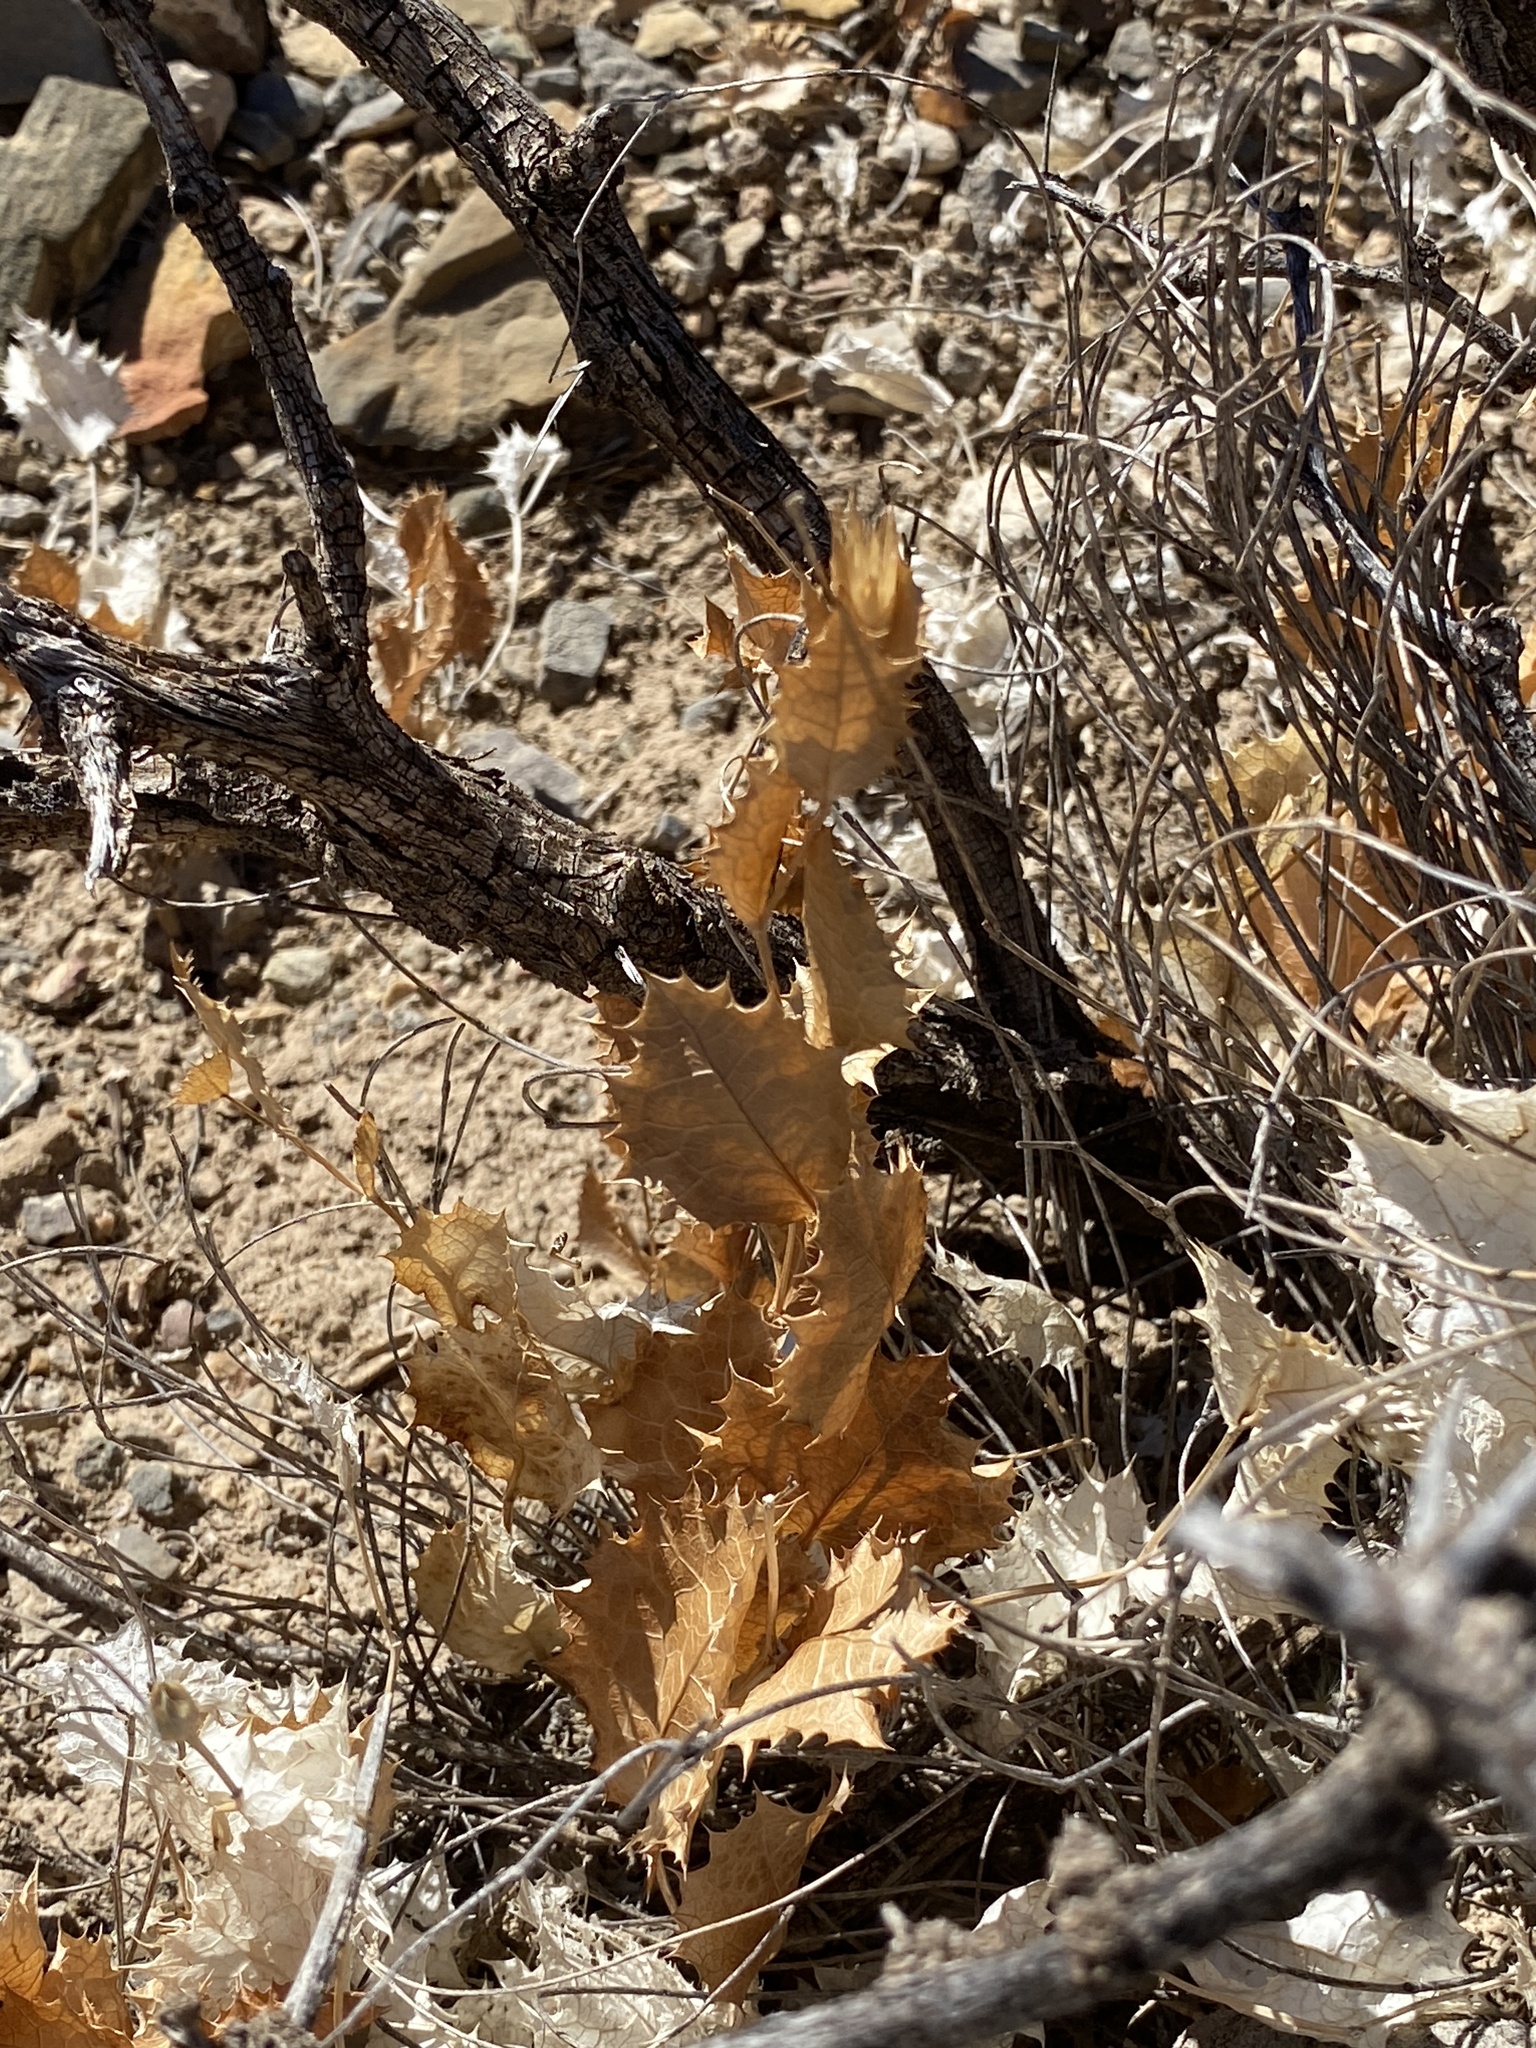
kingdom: Plantae
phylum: Tracheophyta
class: Magnoliopsida
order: Asterales
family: Asteraceae
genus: Acourtia
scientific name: Acourtia nana
